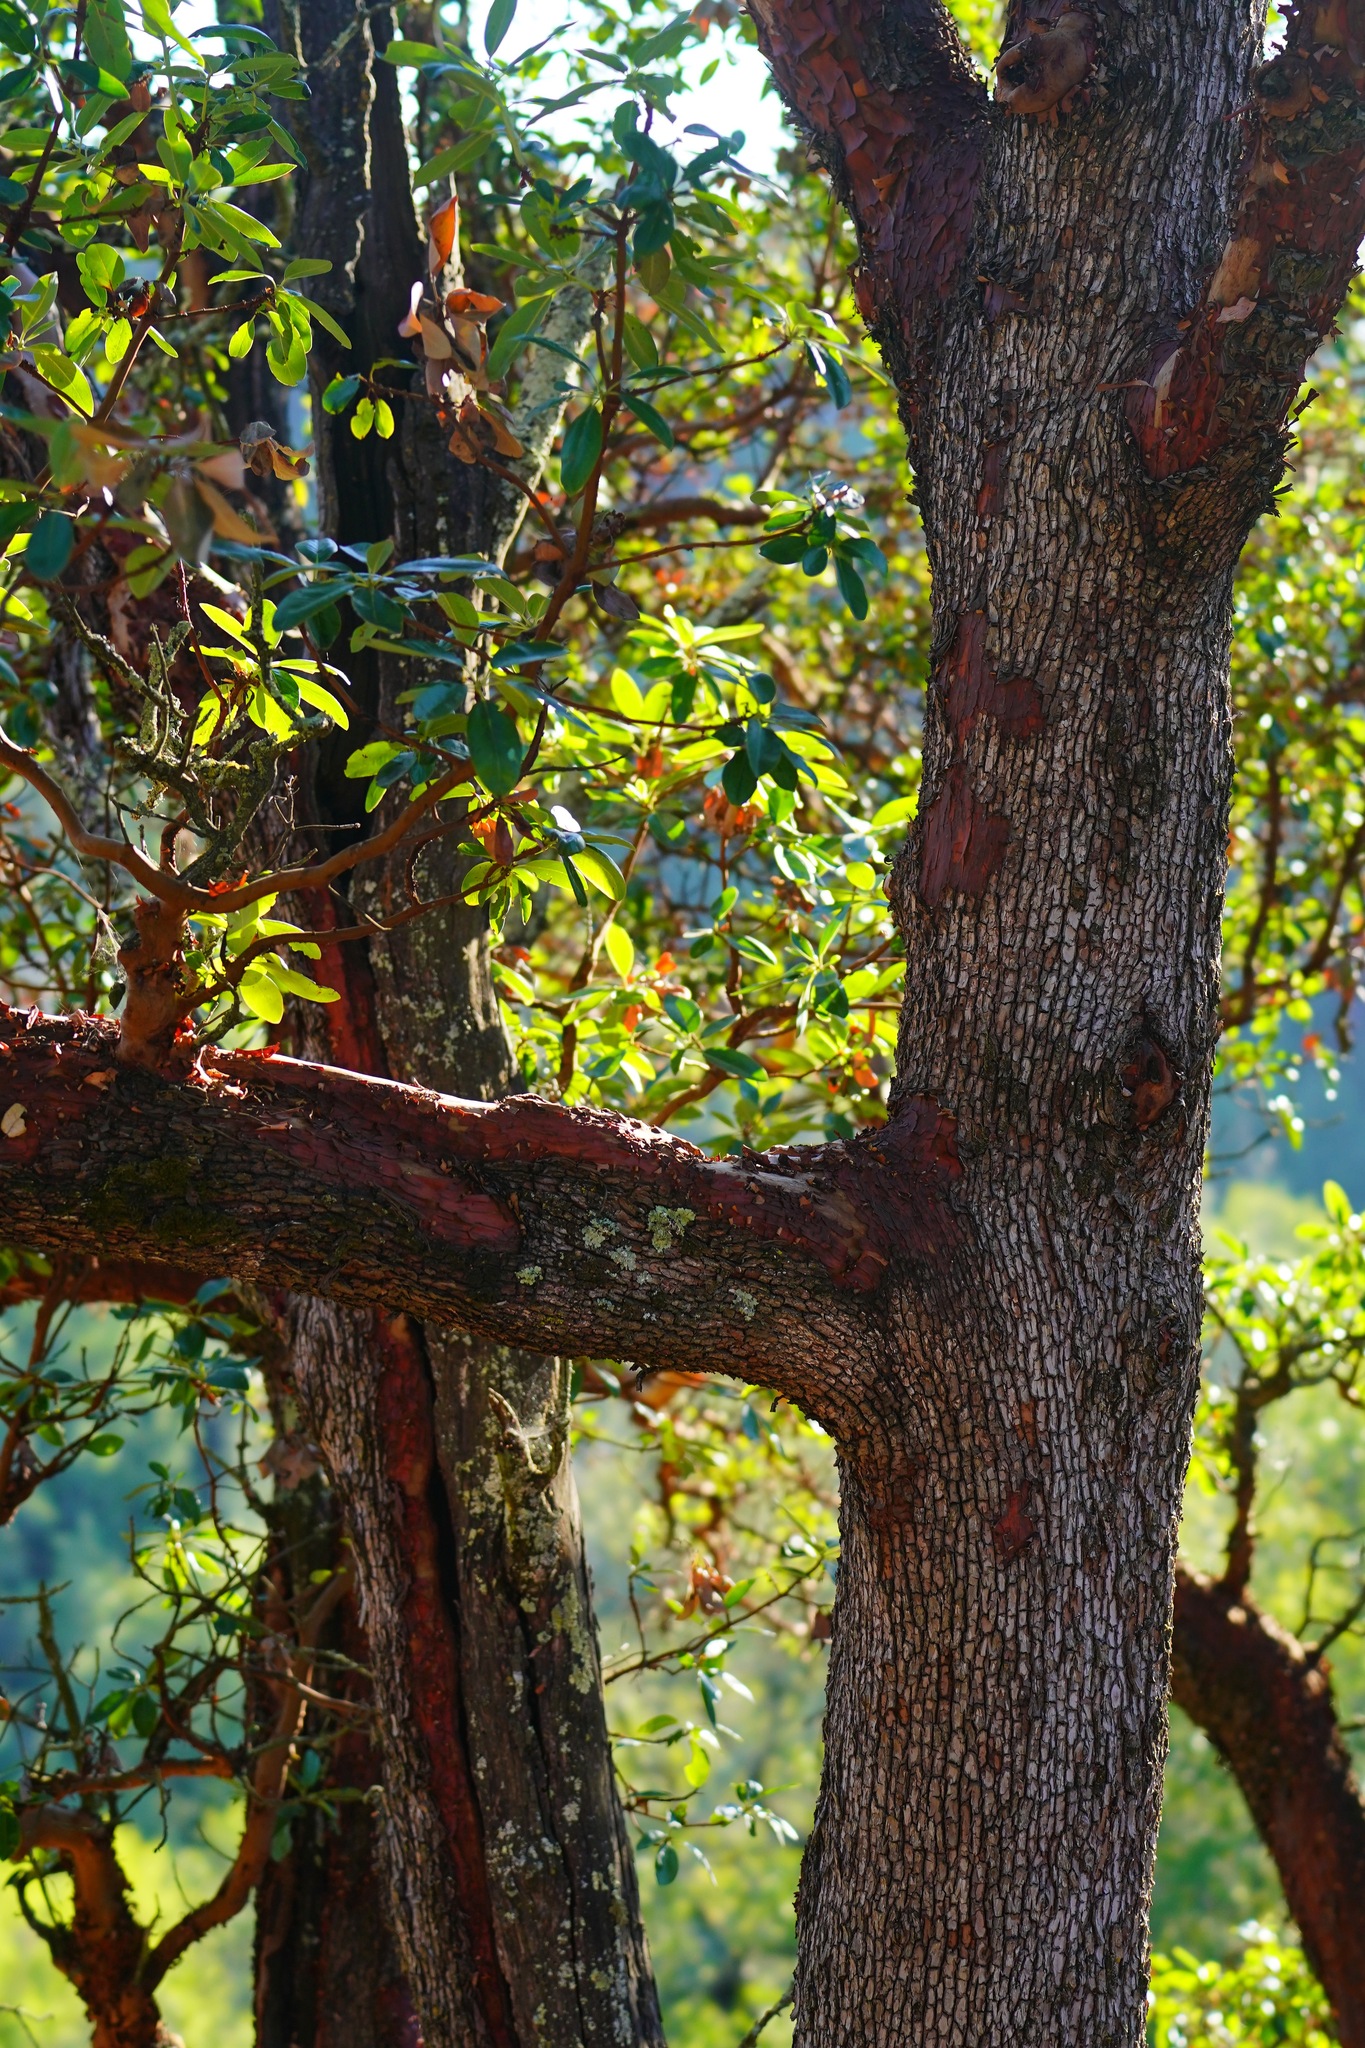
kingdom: Plantae
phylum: Tracheophyta
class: Magnoliopsida
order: Ericales
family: Ericaceae
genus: Arbutus
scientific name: Arbutus menziesii
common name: Pacific madrone
